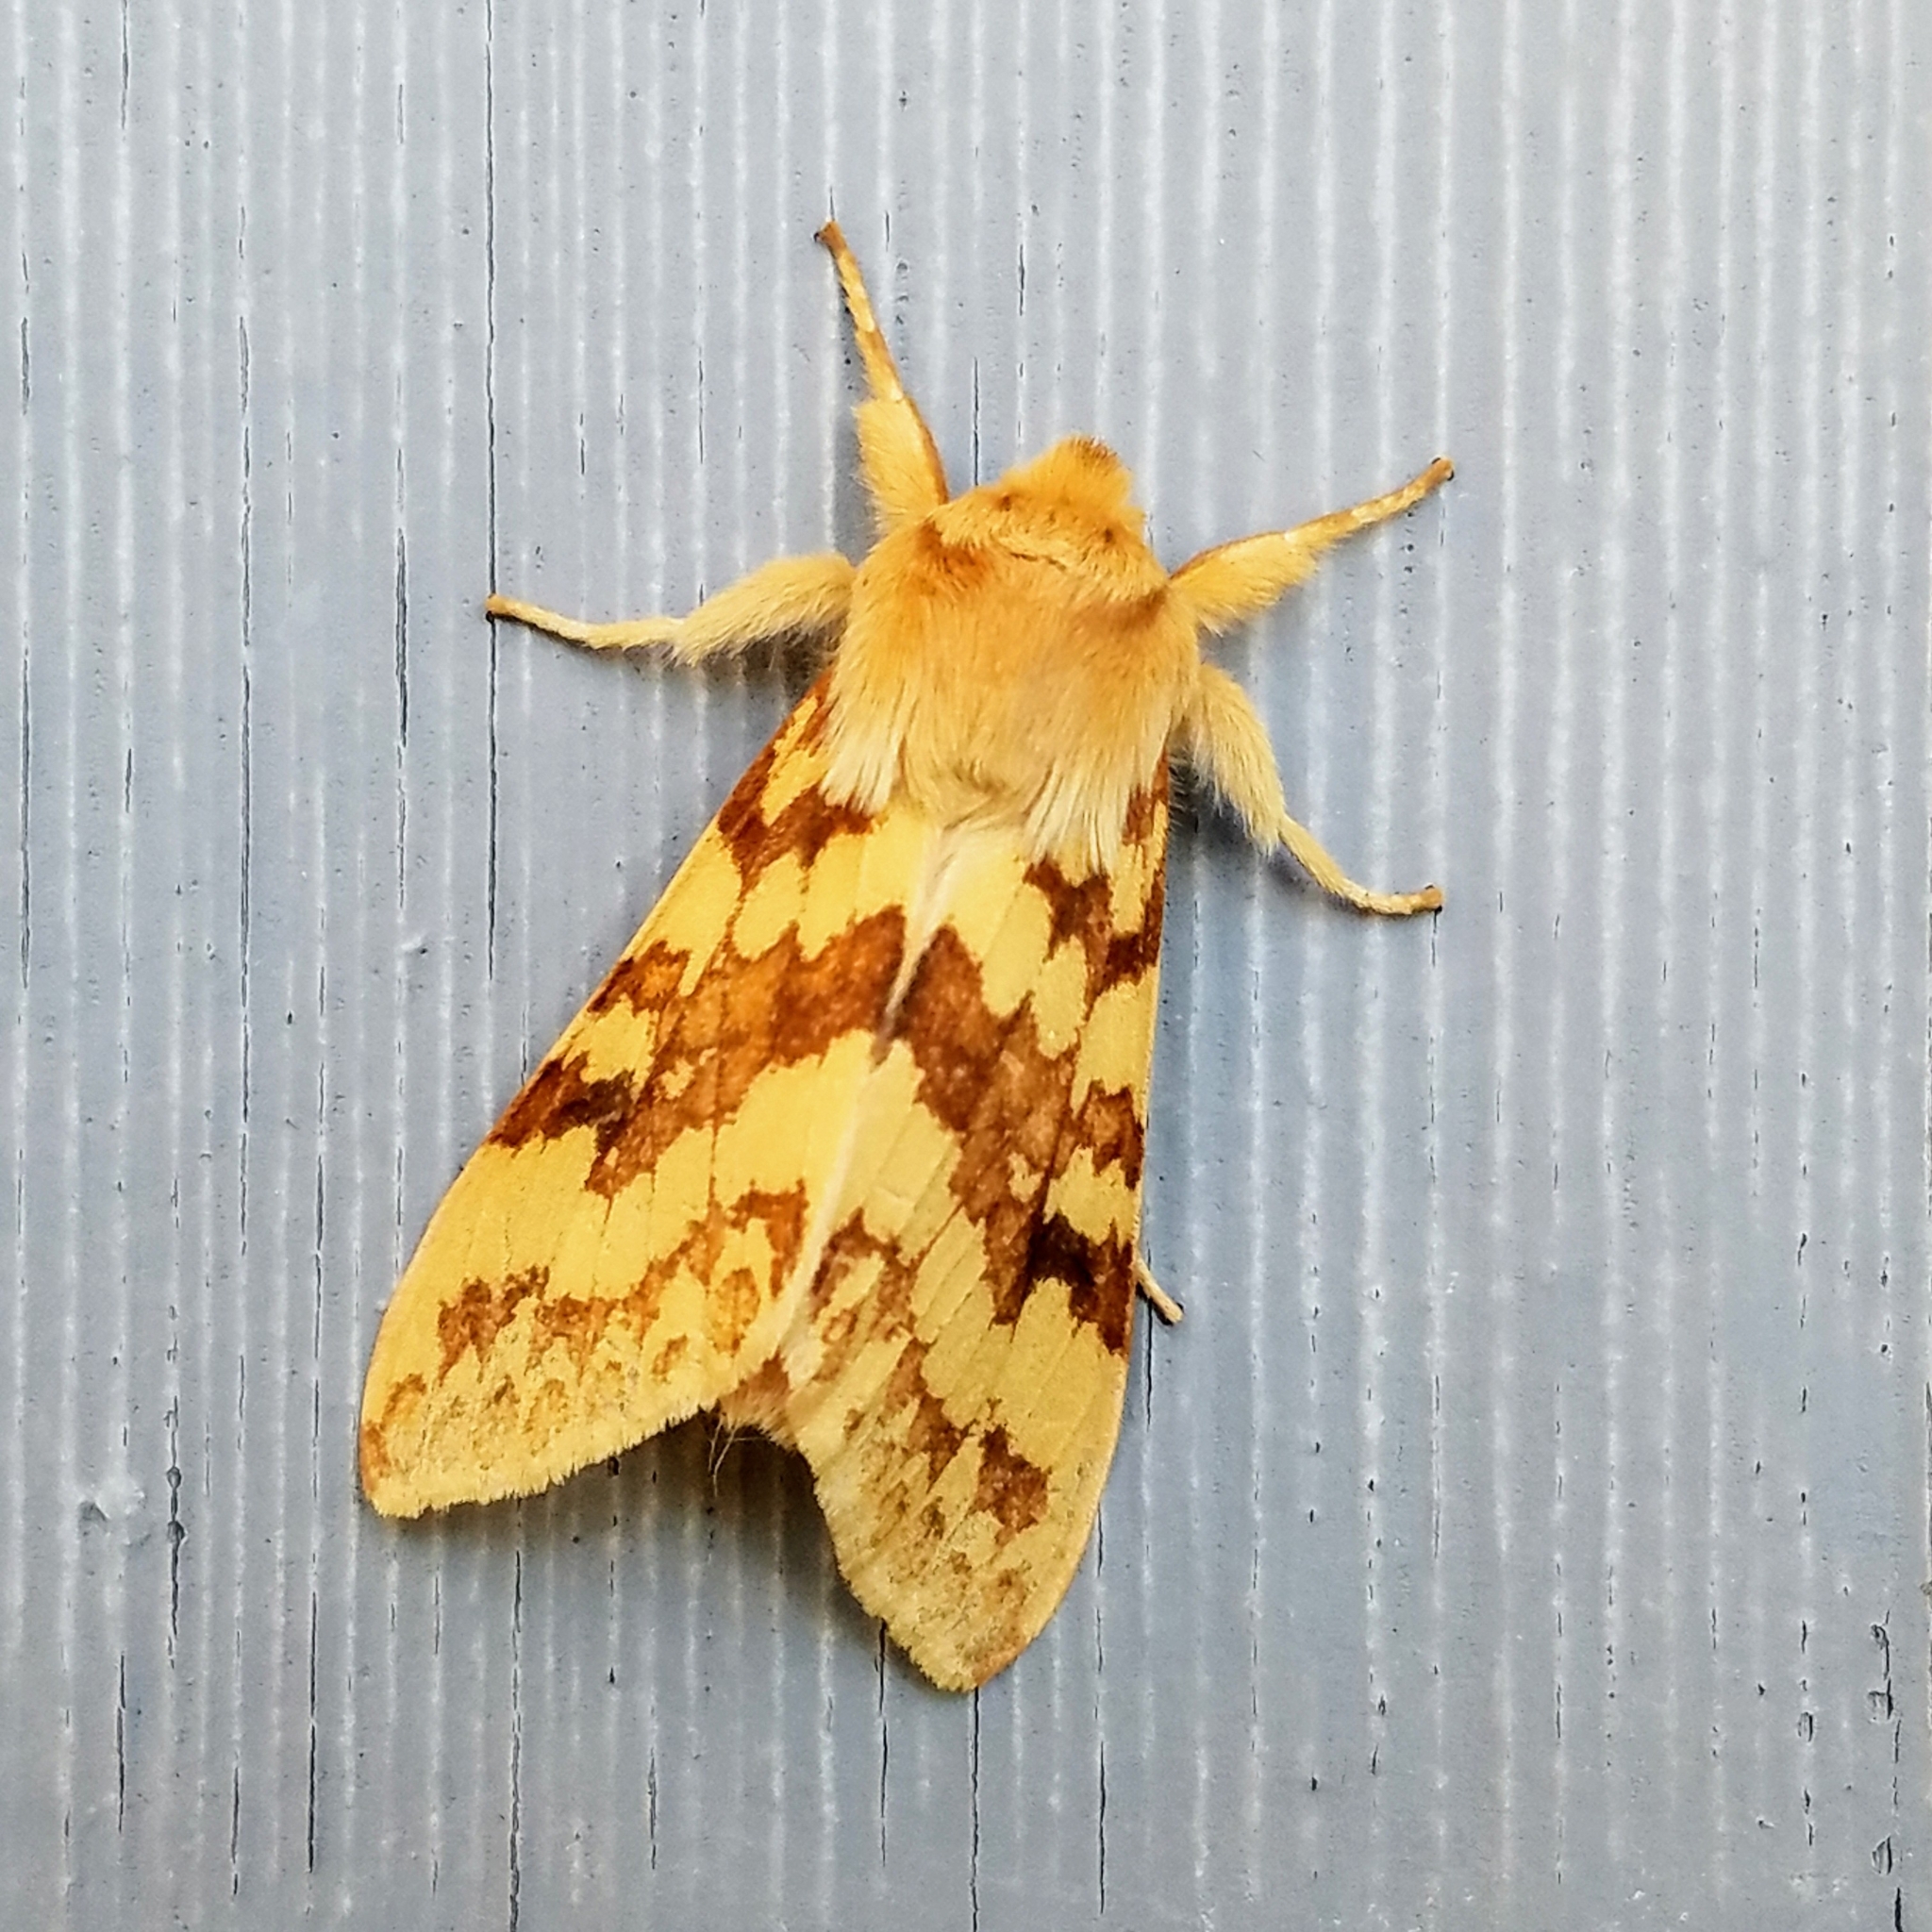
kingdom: Animalia
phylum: Arthropoda
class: Insecta
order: Lepidoptera
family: Erebidae
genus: Lophocampa
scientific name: Lophocampa maculata
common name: Spotted tussock moth
